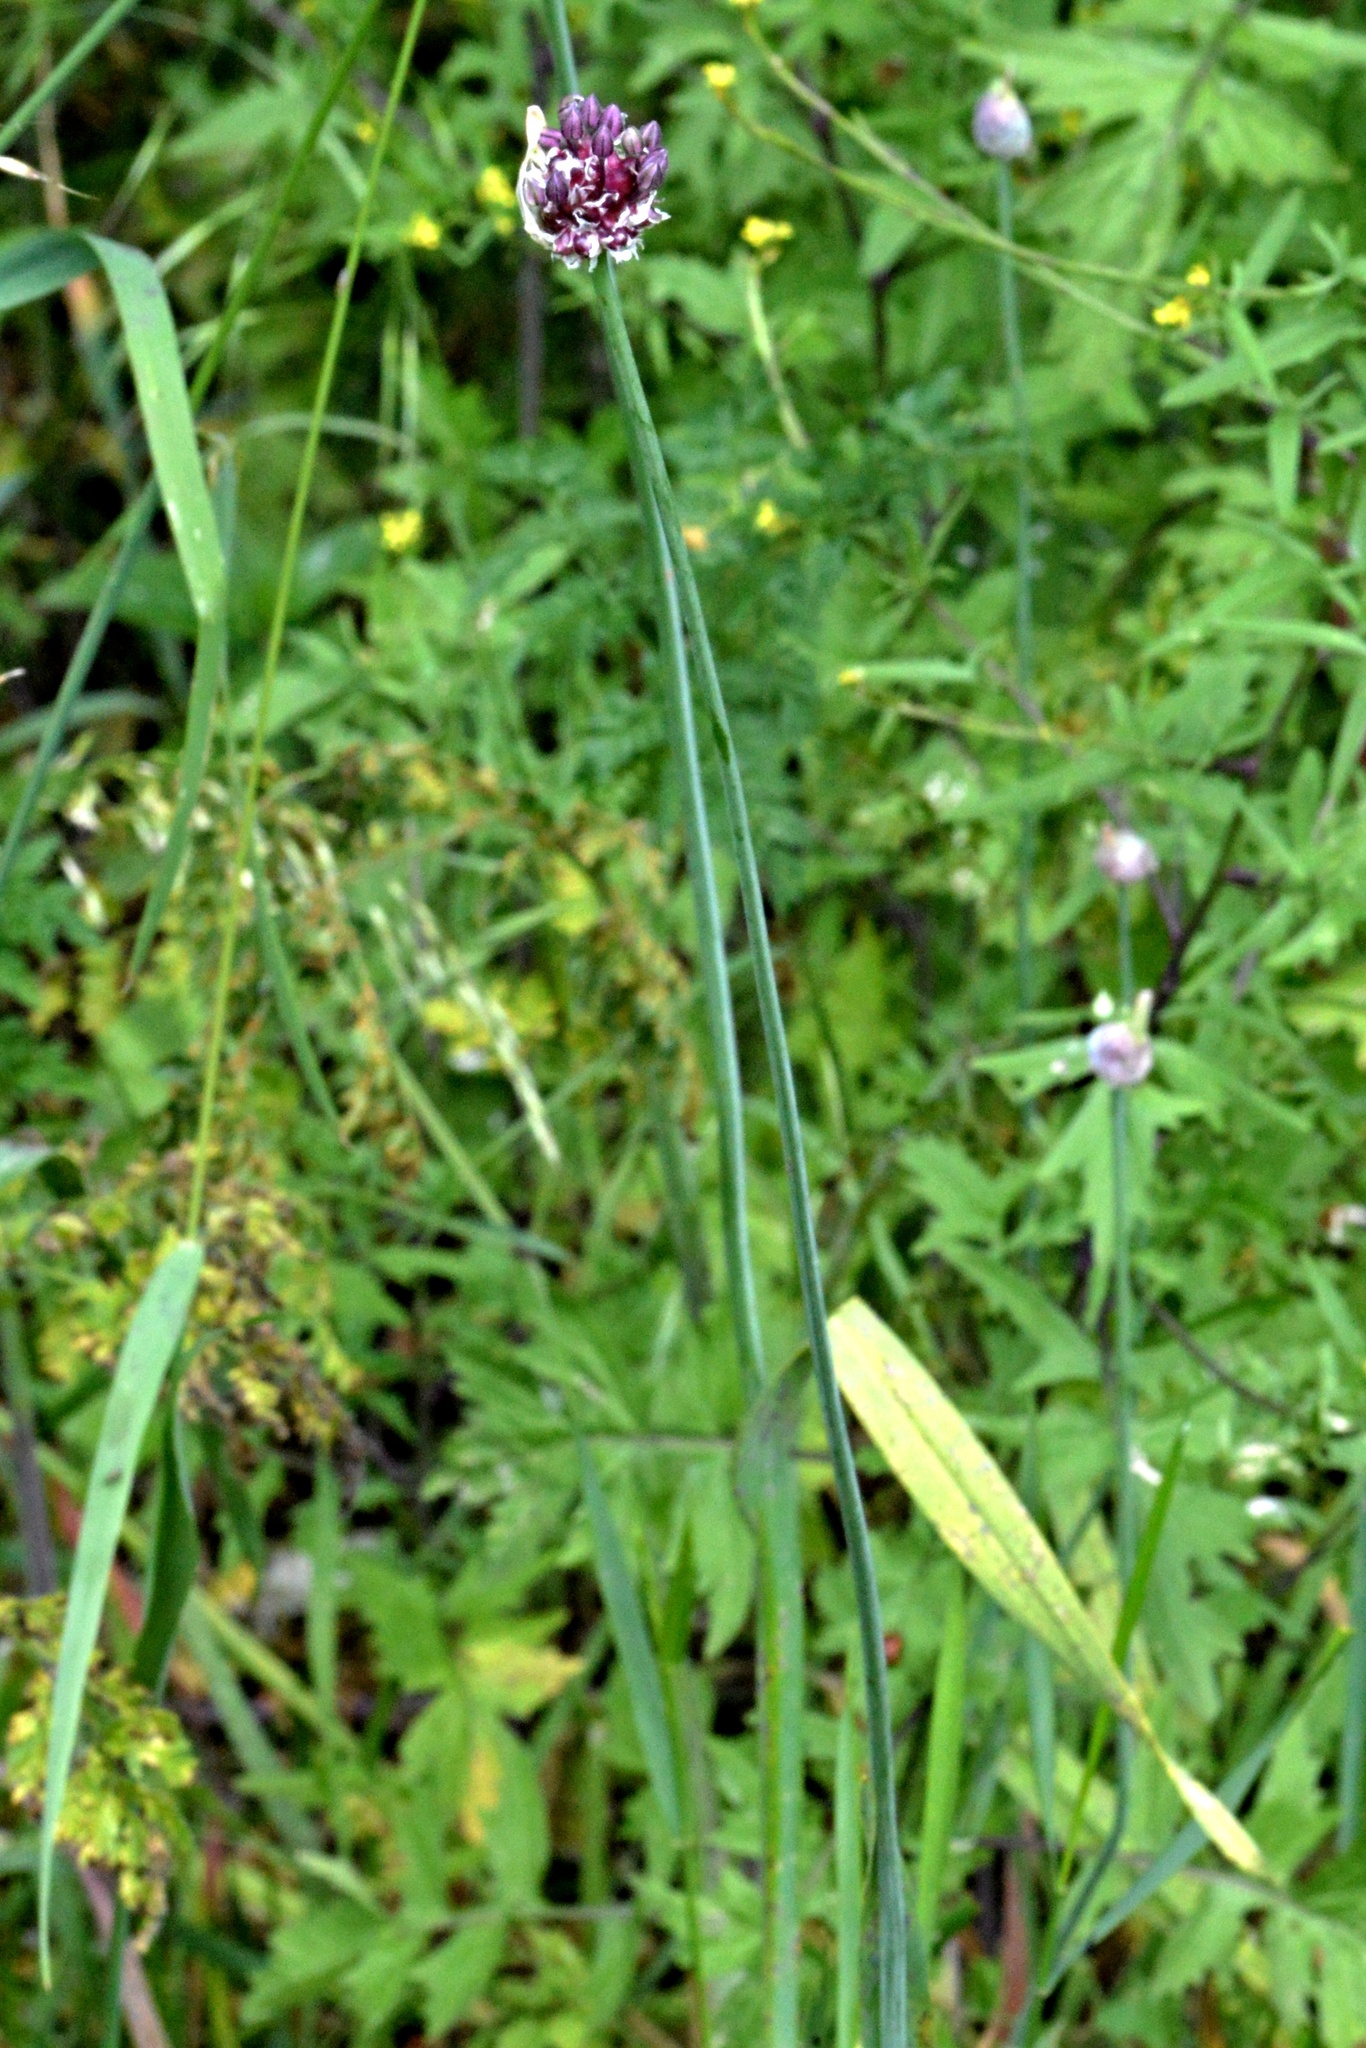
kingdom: Plantae
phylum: Tracheophyta
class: Liliopsida
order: Asparagales
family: Amaryllidaceae
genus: Allium
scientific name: Allium scorodoprasum
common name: Sand leek
